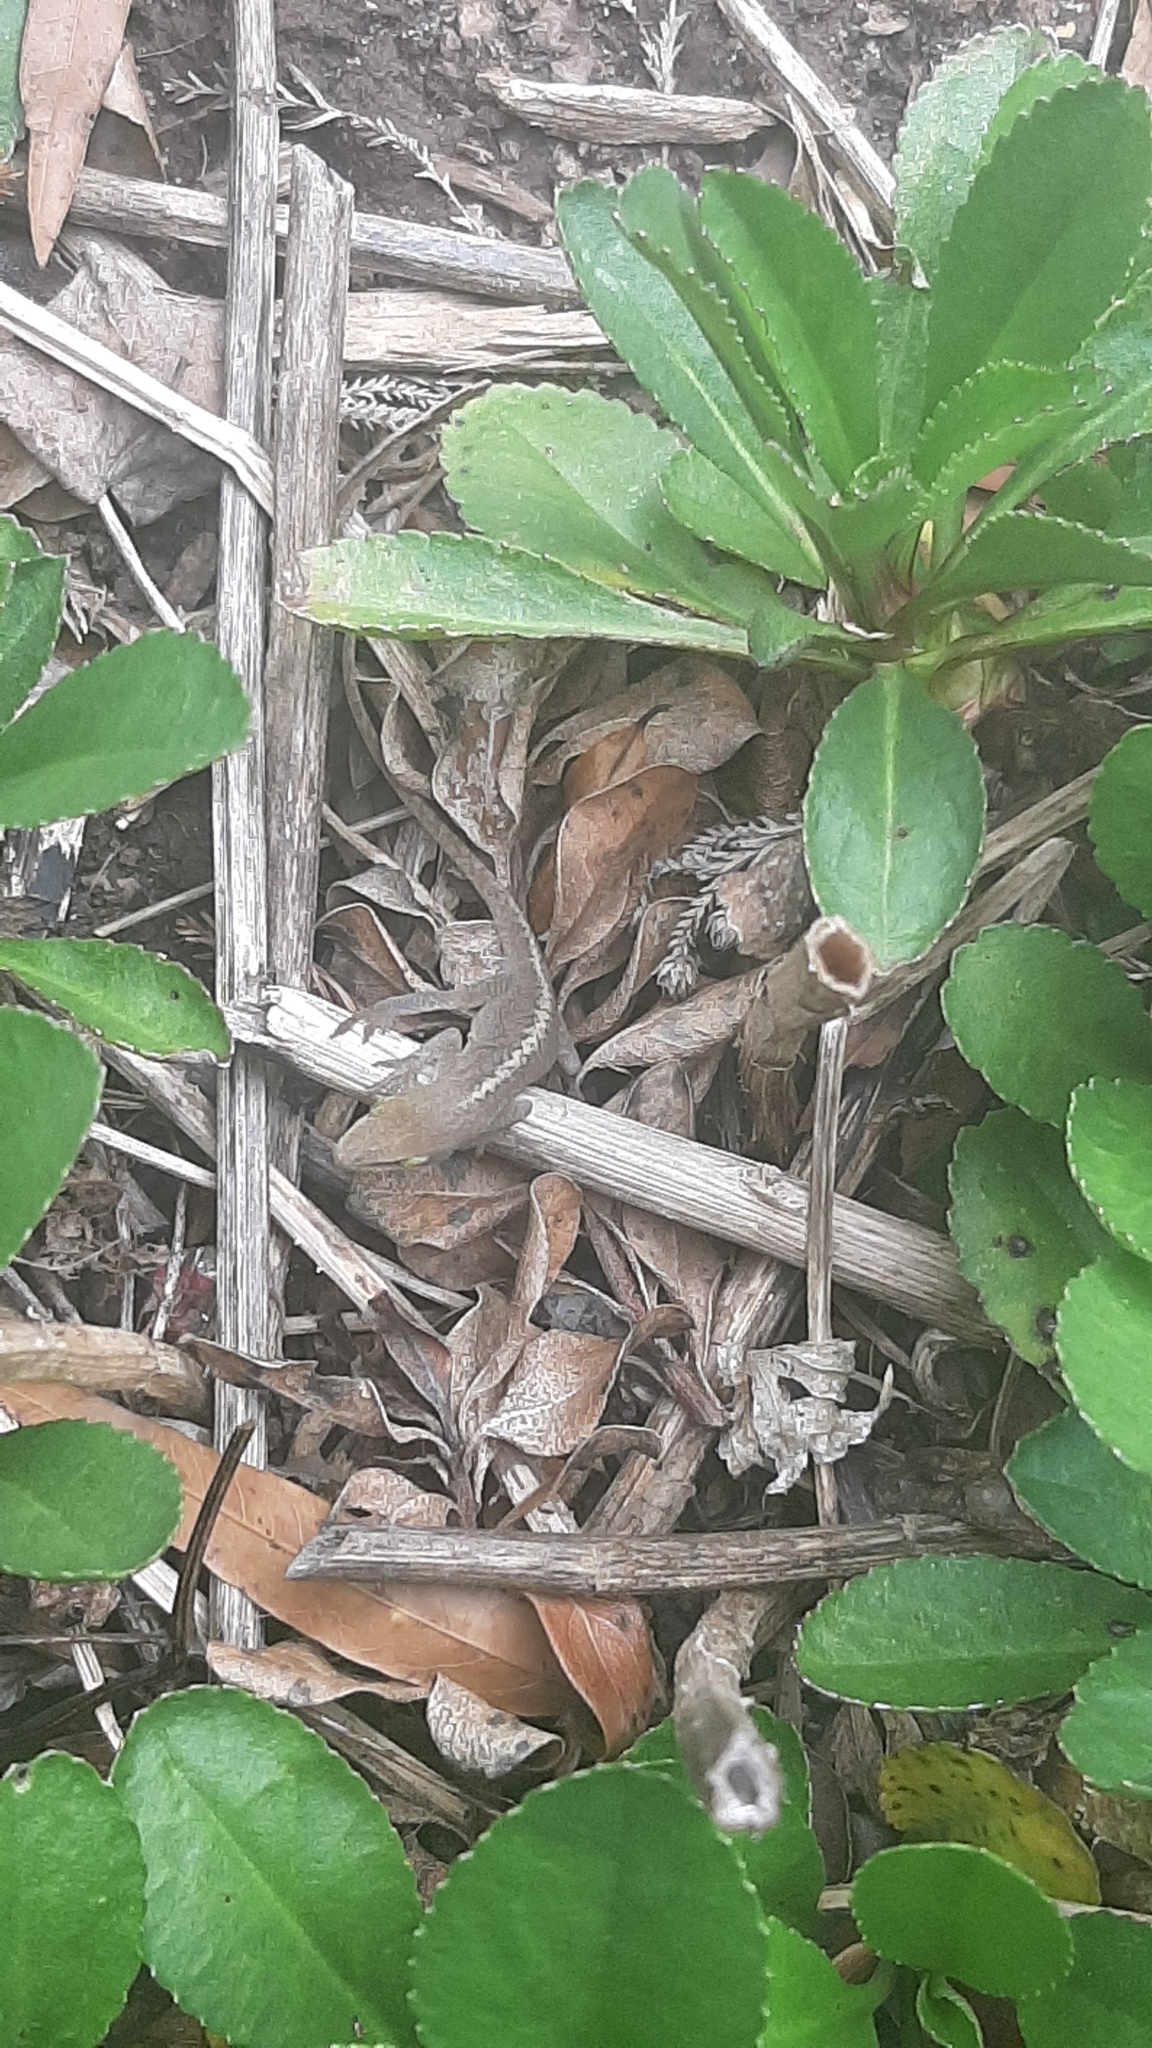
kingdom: Animalia
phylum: Chordata
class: Squamata
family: Dactyloidae
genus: Anolis
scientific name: Anolis carolinensis
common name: Green anole
